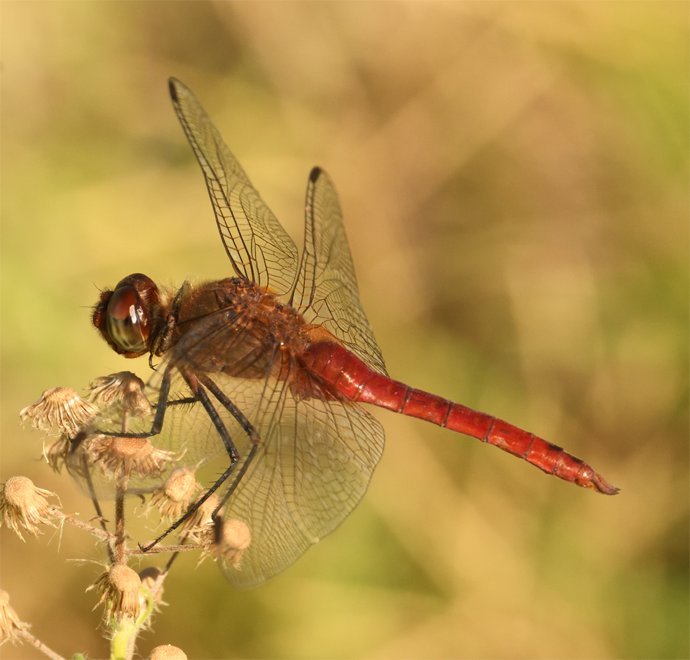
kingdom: Animalia
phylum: Arthropoda
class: Insecta
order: Odonata
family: Libellulidae
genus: Brachymesia
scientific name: Brachymesia furcata
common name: Red-taled pennant
